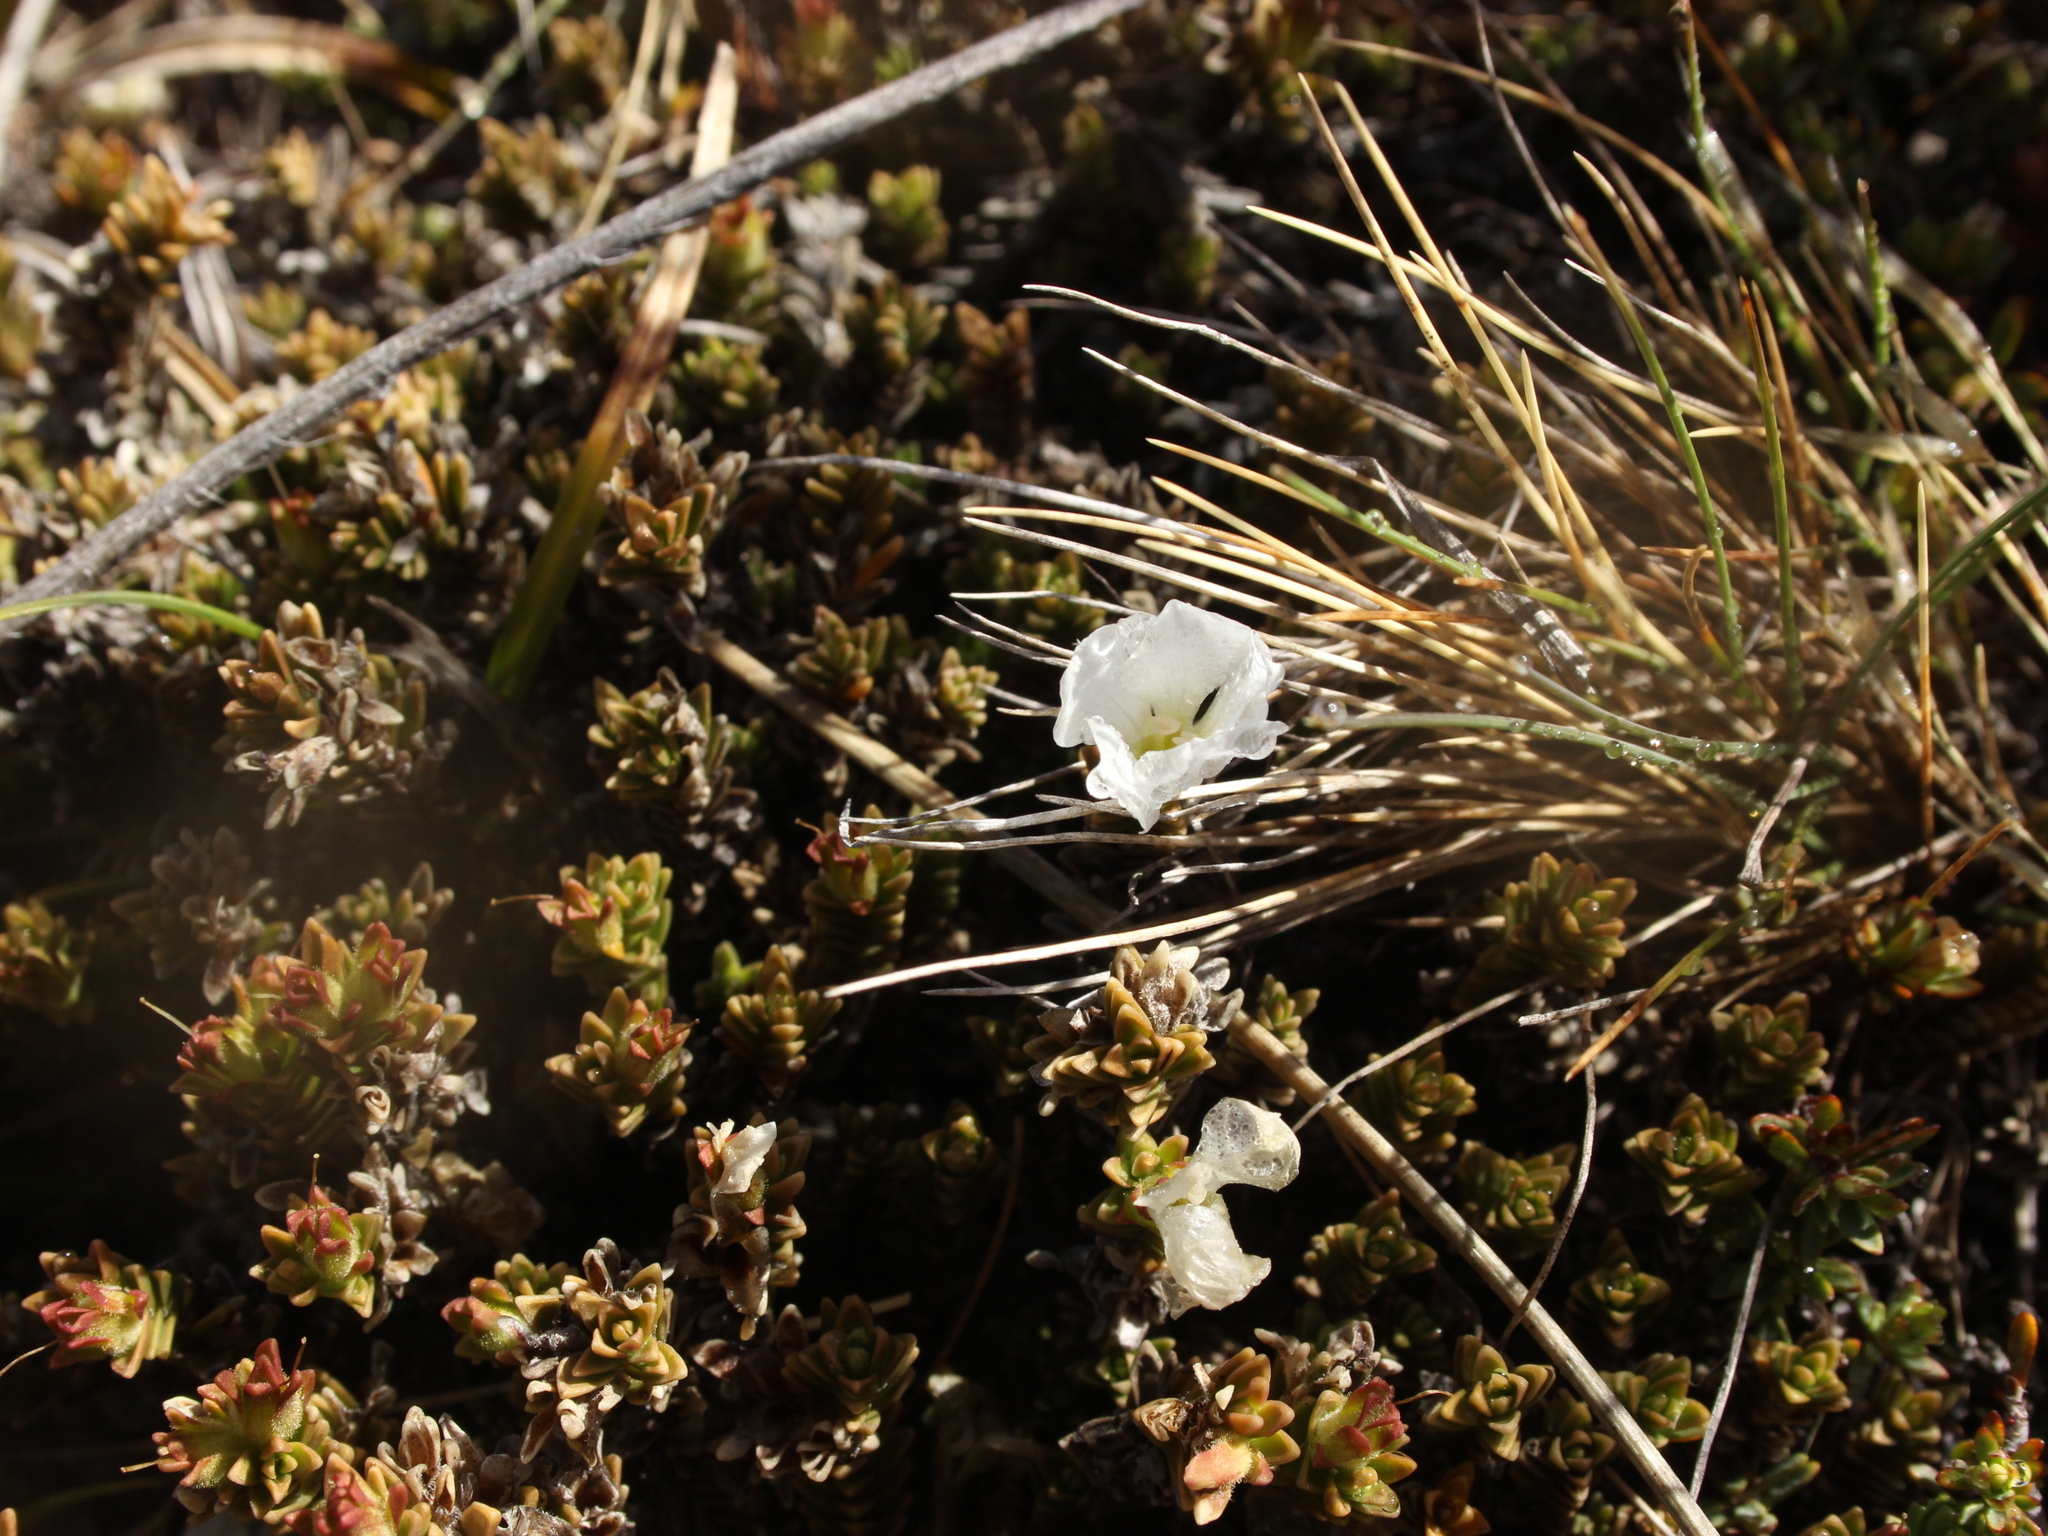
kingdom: Plantae
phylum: Tracheophyta
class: Magnoliopsida
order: Lamiales
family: Plantaginaceae
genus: Veronica
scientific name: Veronica densifolia
